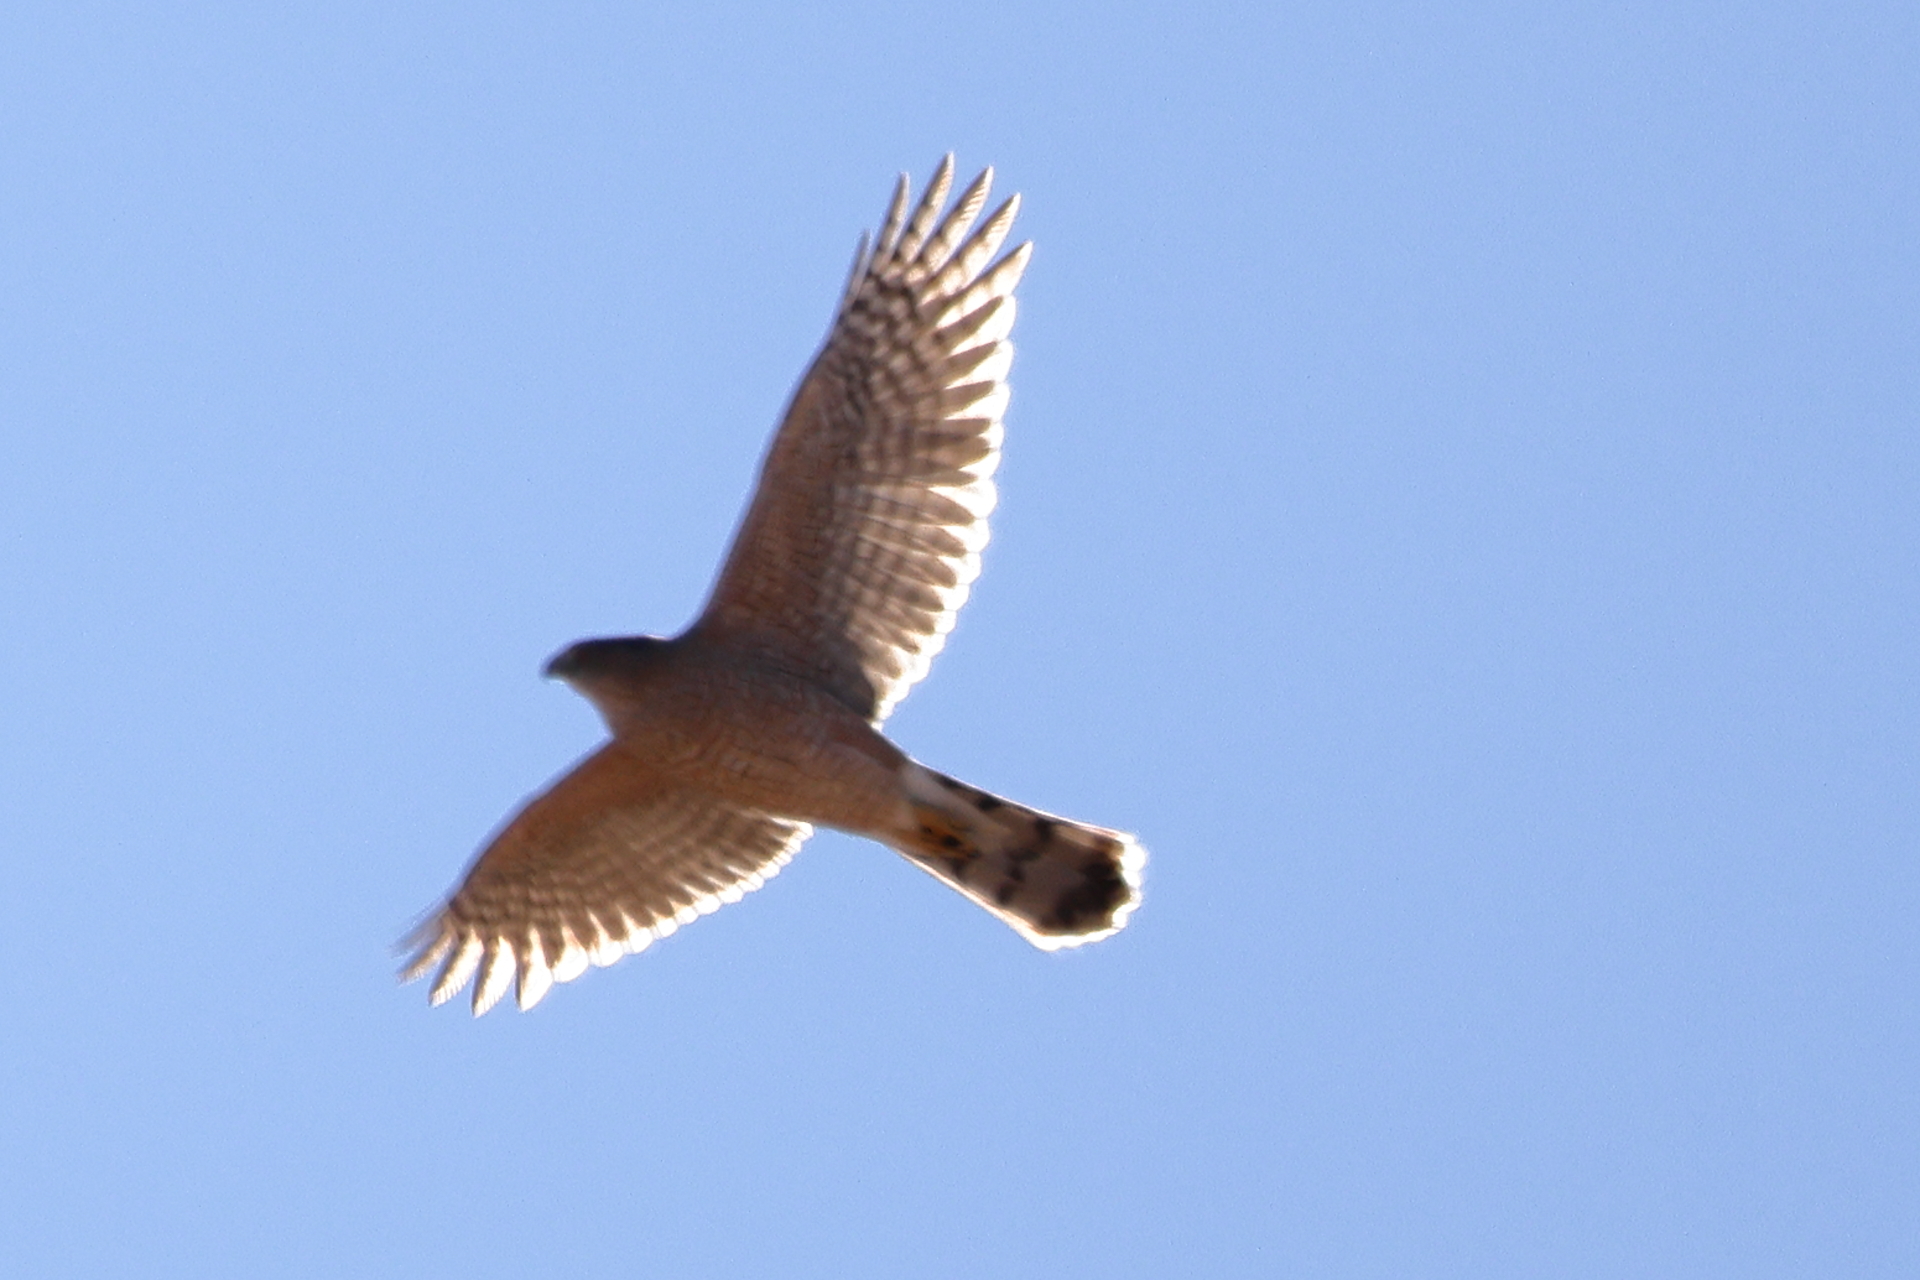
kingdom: Animalia
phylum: Chordata
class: Aves
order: Accipitriformes
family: Accipitridae
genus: Accipiter
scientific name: Accipiter cooperii
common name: Cooper's hawk
